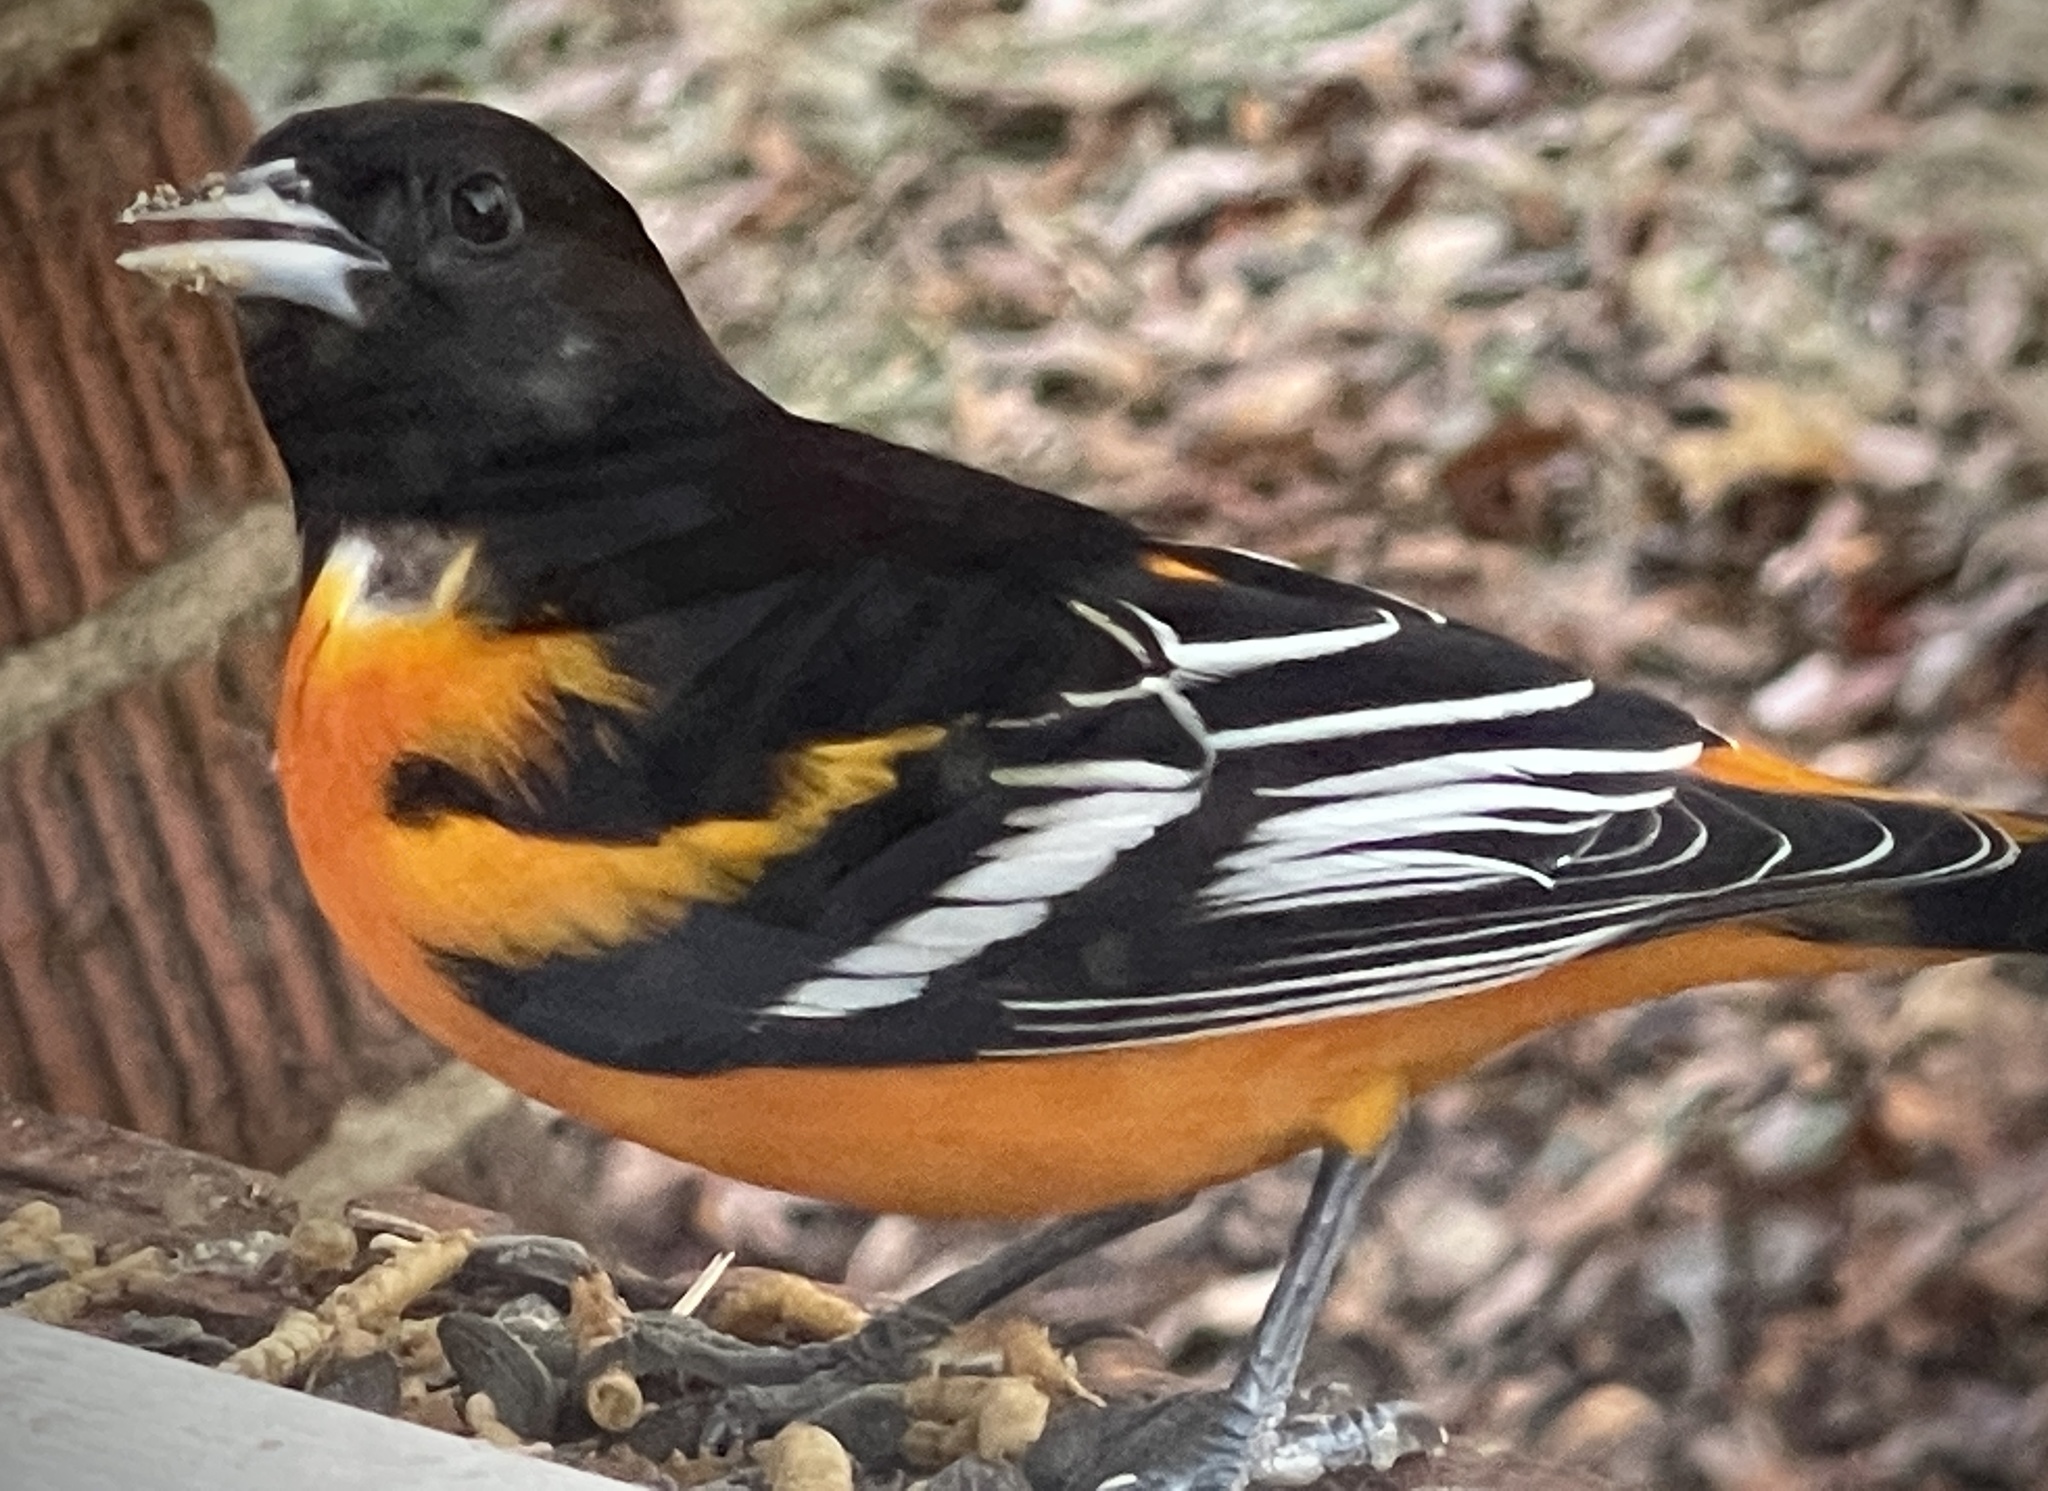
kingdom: Animalia
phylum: Chordata
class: Aves
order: Passeriformes
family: Icteridae
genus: Icterus
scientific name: Icterus galbula
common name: Baltimore oriole
